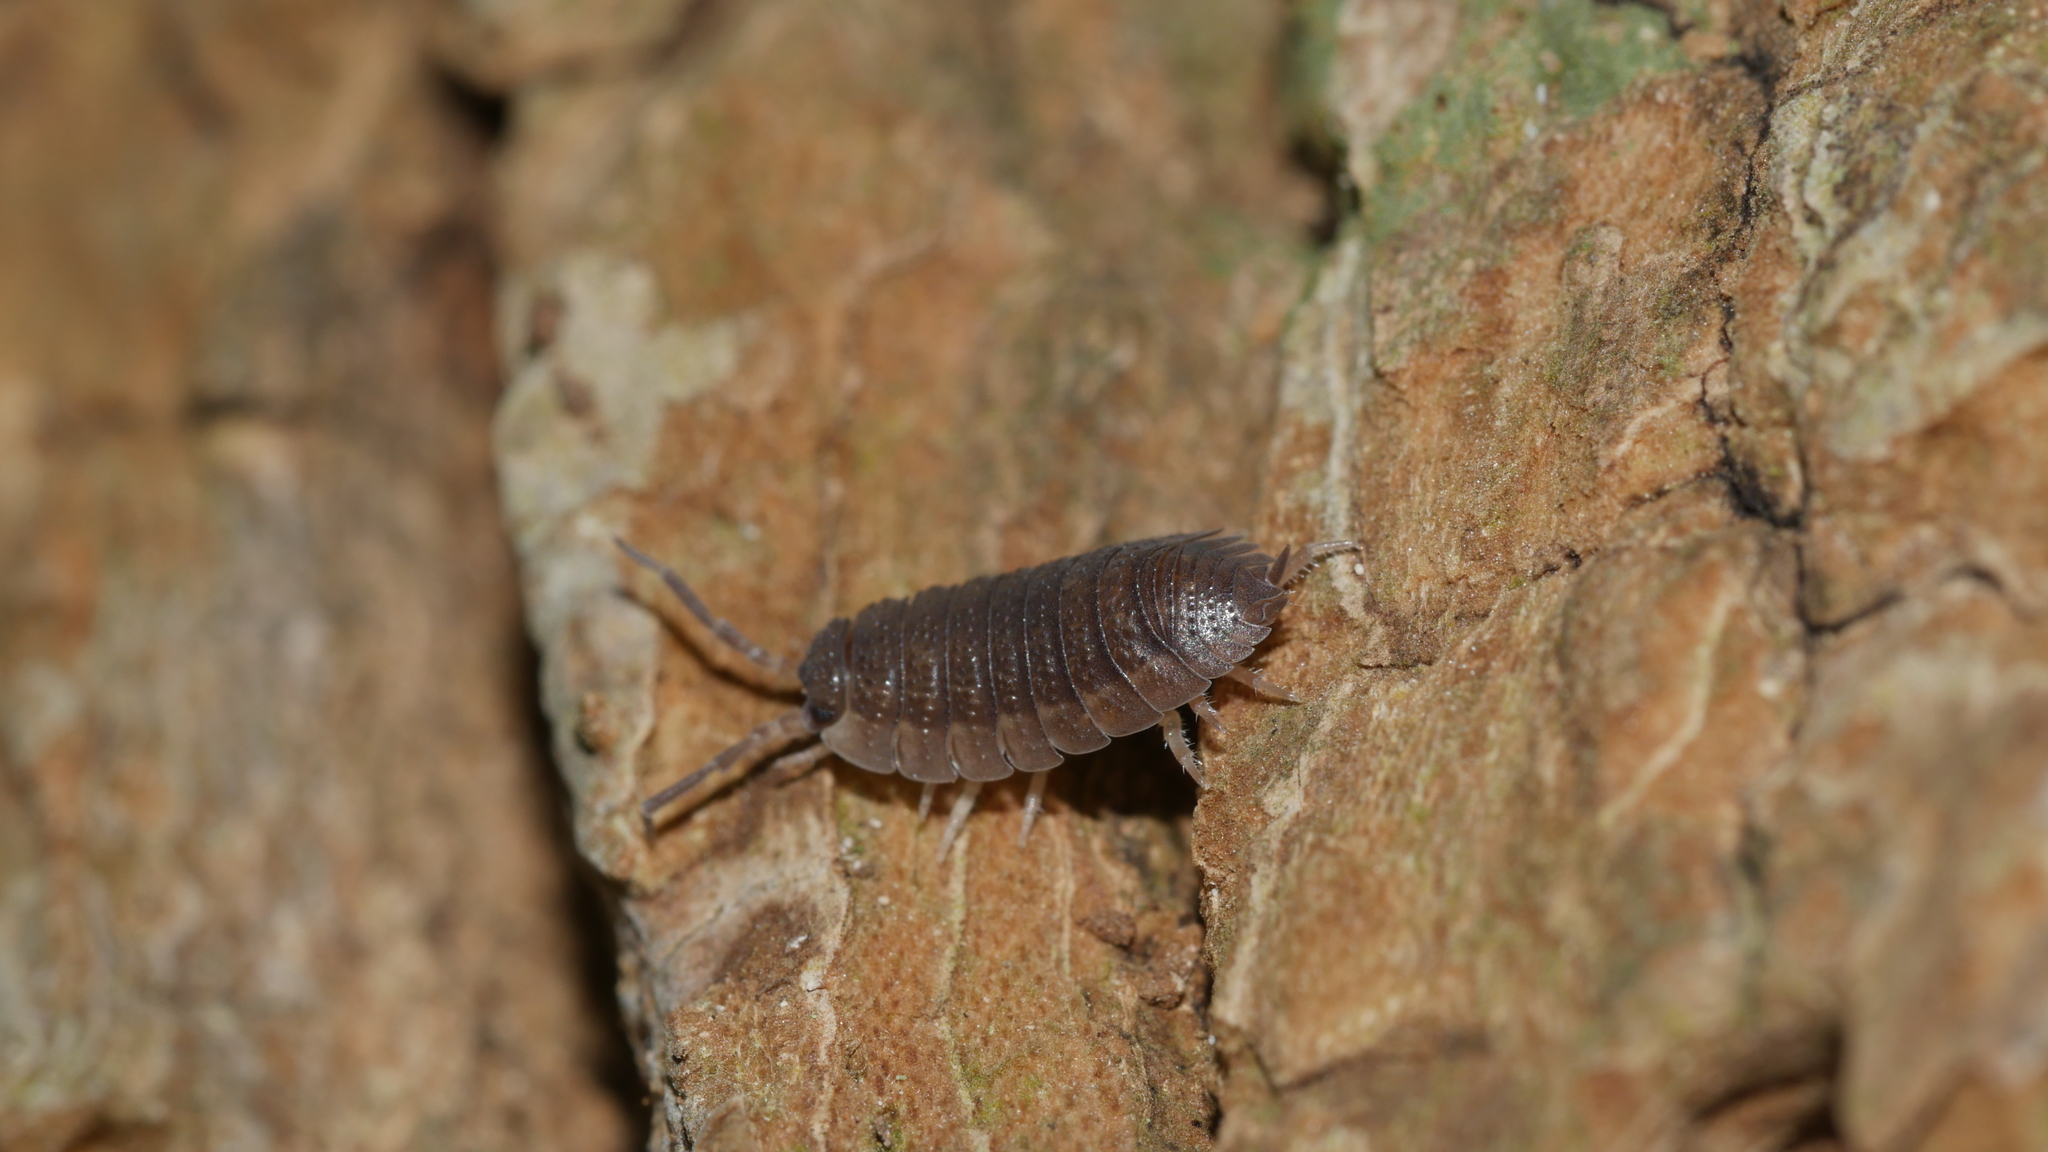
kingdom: Animalia
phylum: Arthropoda
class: Malacostraca
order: Isopoda
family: Porcellionidae
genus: Porcellio
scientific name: Porcellio scaber
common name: Common rough woodlouse
